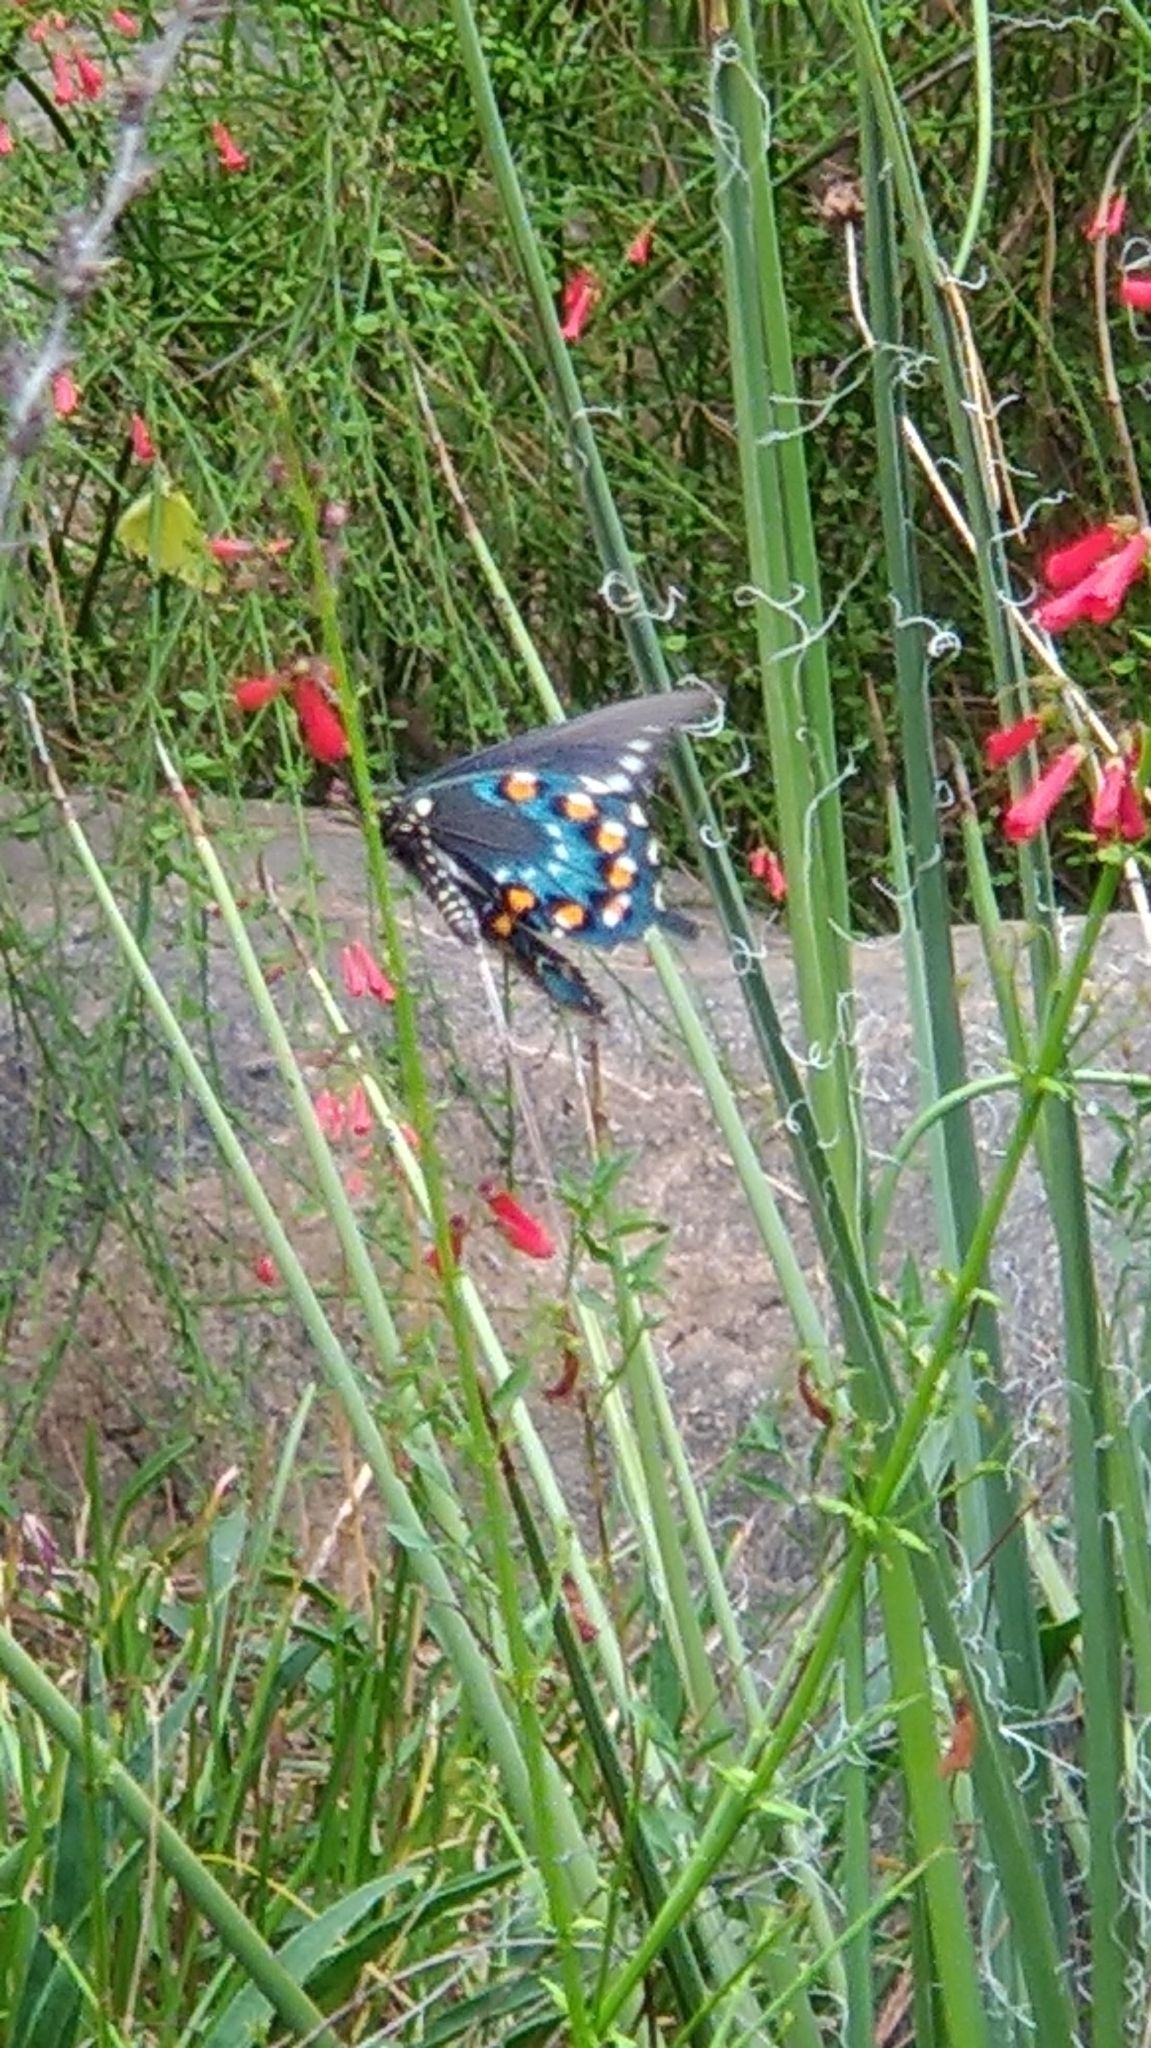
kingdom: Animalia
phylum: Arthropoda
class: Insecta
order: Lepidoptera
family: Papilionidae
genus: Battus
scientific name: Battus philenor
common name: Pipevine swallowtail
